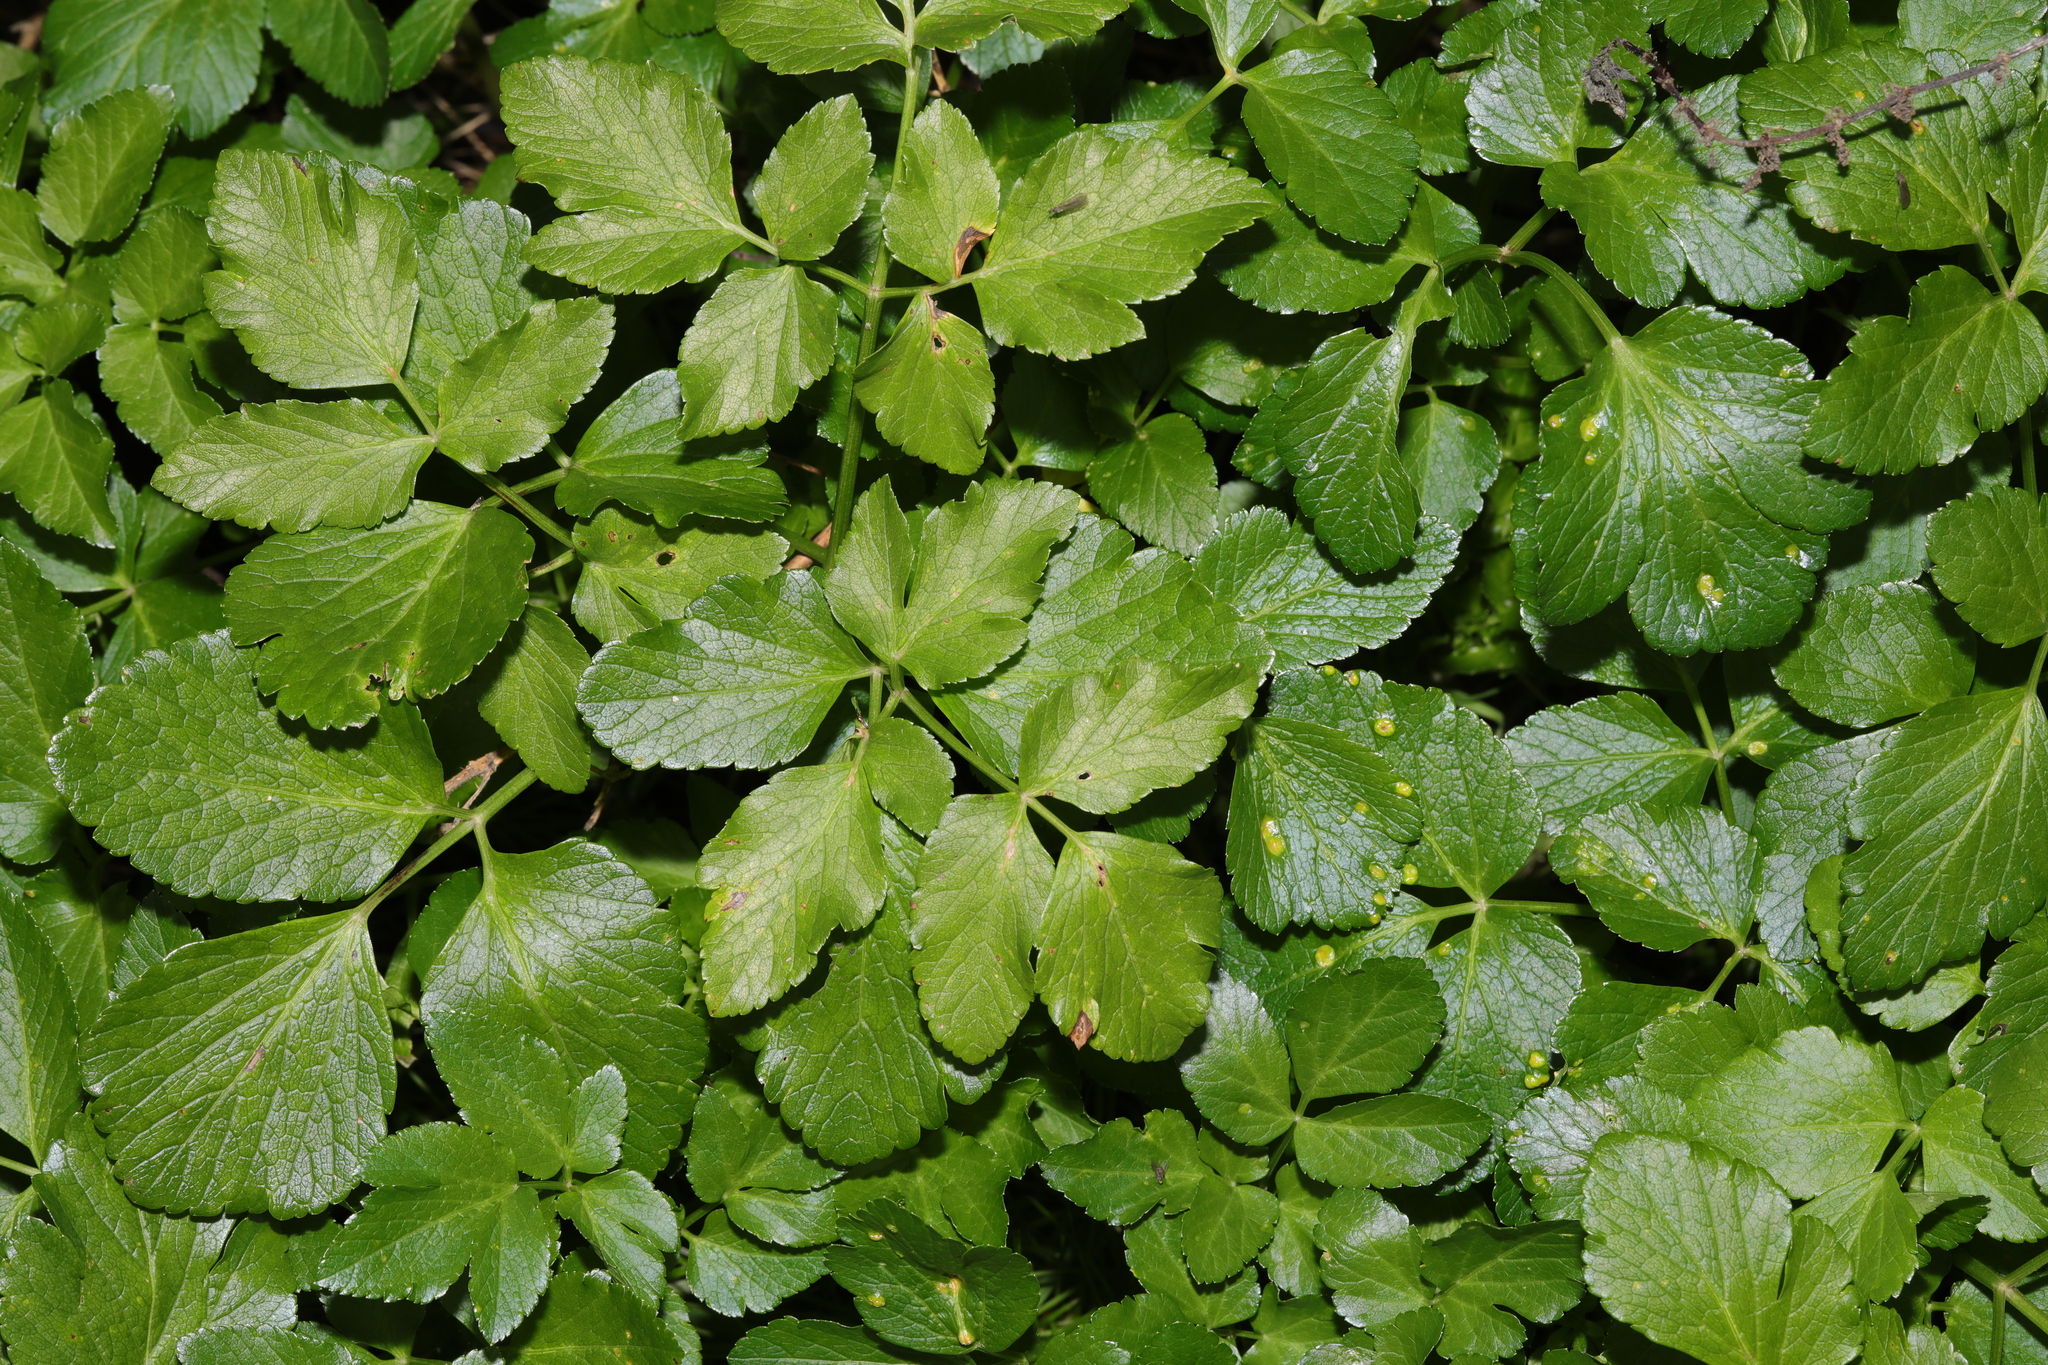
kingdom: Plantae
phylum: Tracheophyta
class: Magnoliopsida
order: Apiales
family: Apiaceae
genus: Smyrnium
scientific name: Smyrnium olusatrum
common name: Alexanders
